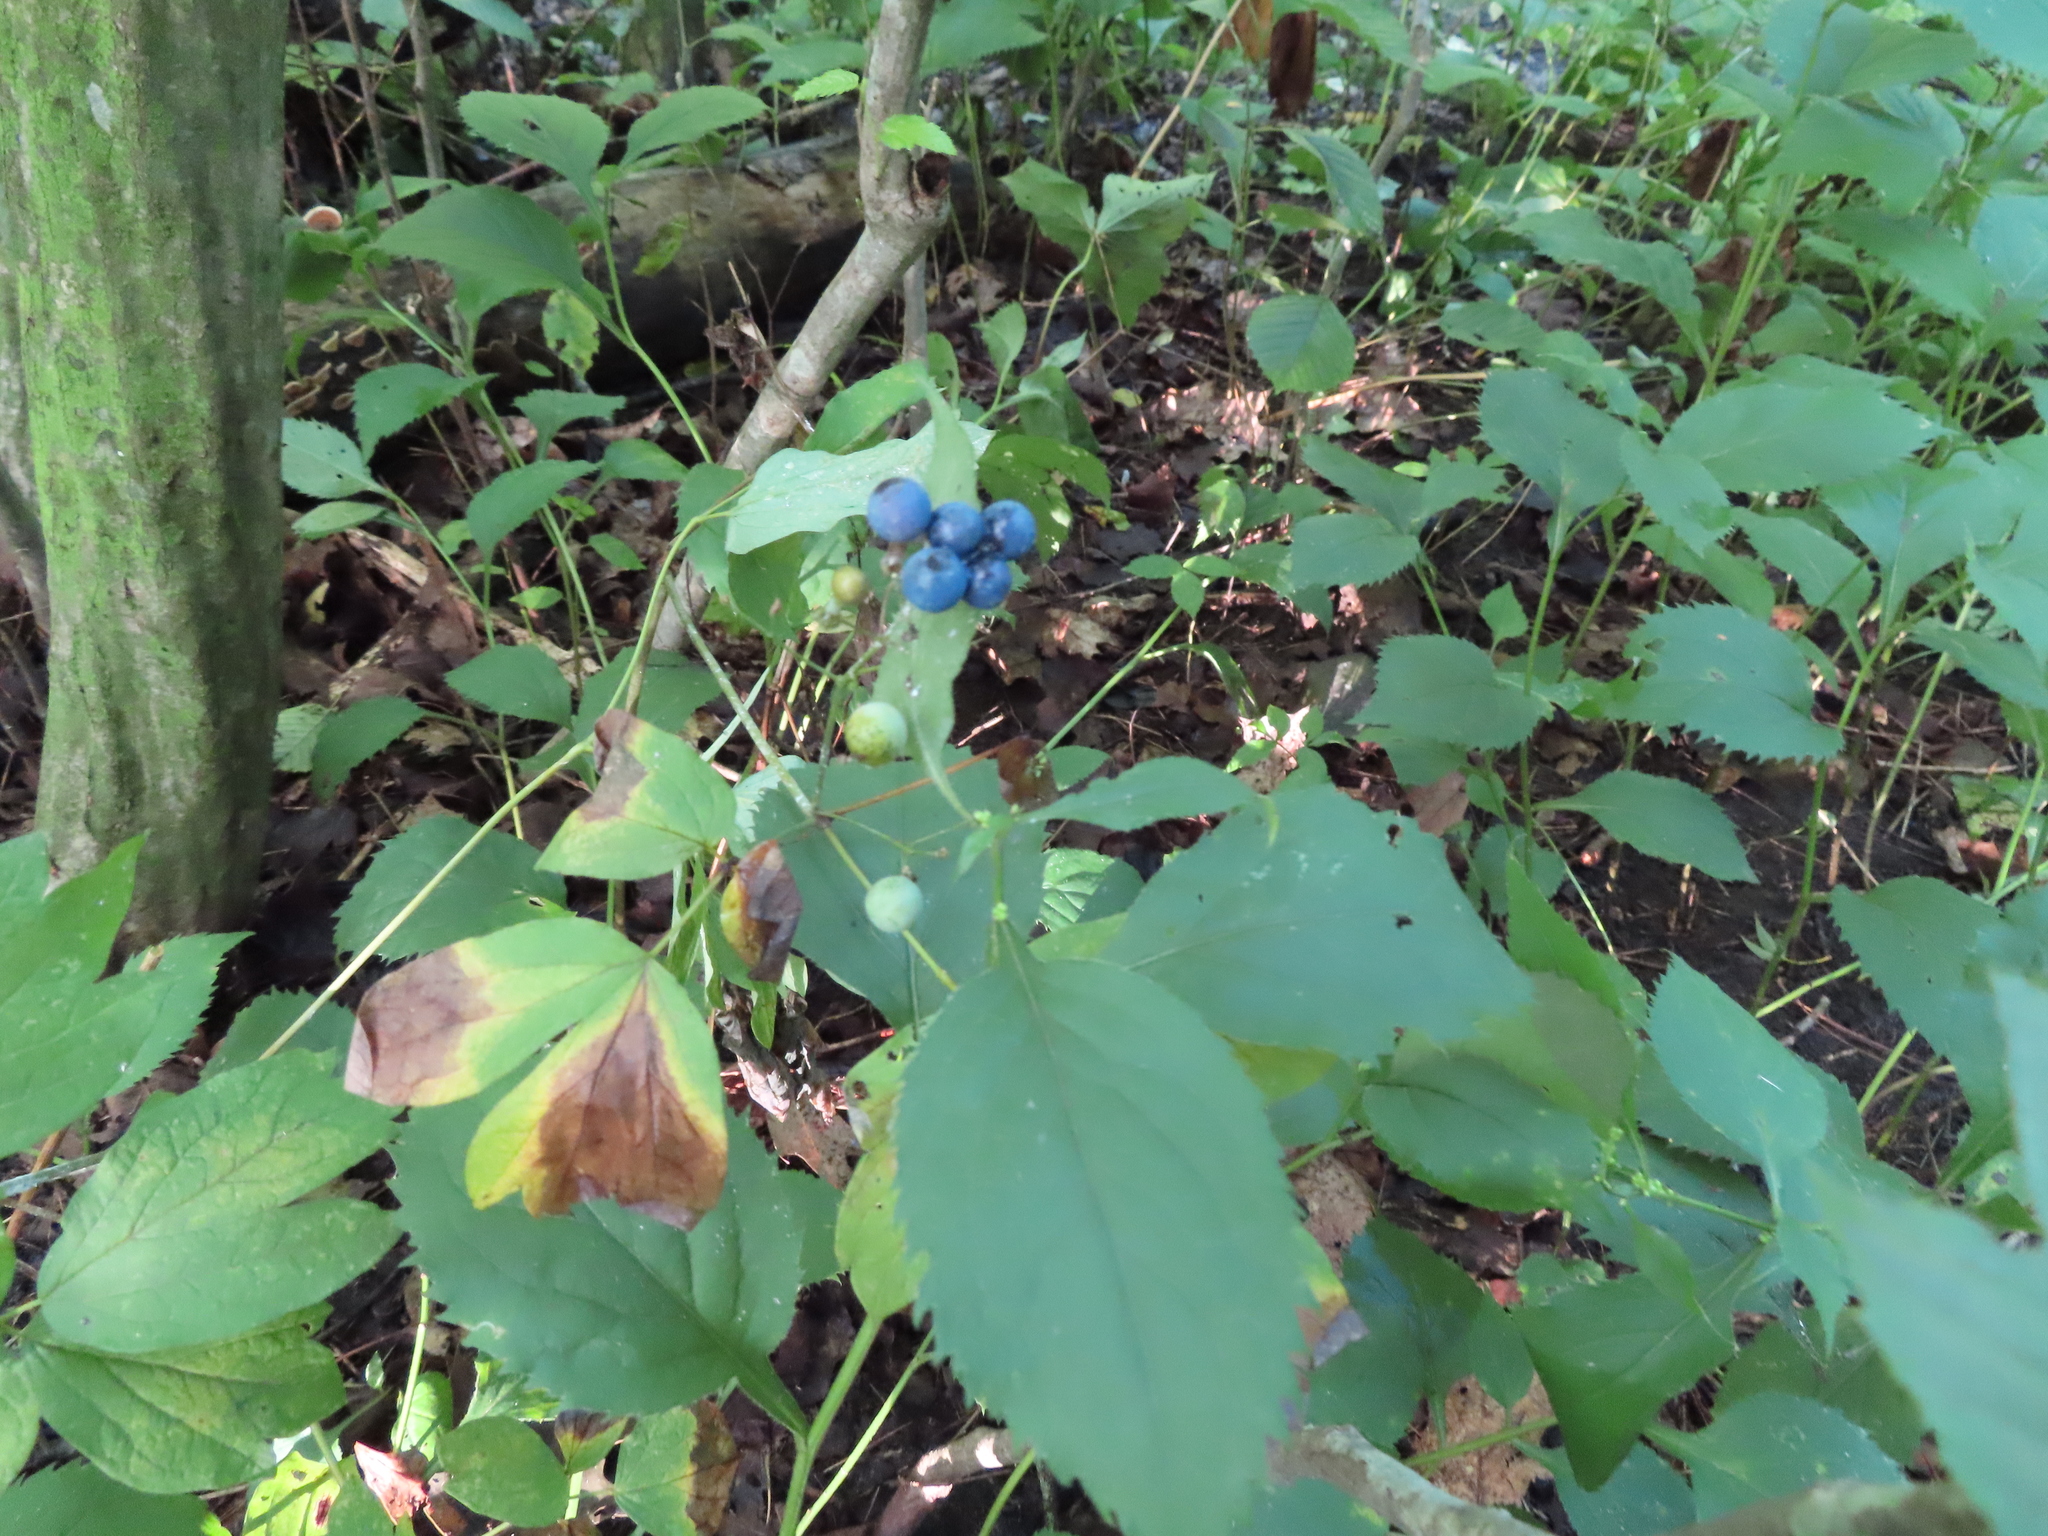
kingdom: Plantae
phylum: Tracheophyta
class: Magnoliopsida
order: Ranunculales
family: Berberidaceae
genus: Caulophyllum
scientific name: Caulophyllum thalictroides
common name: Blue cohosh
